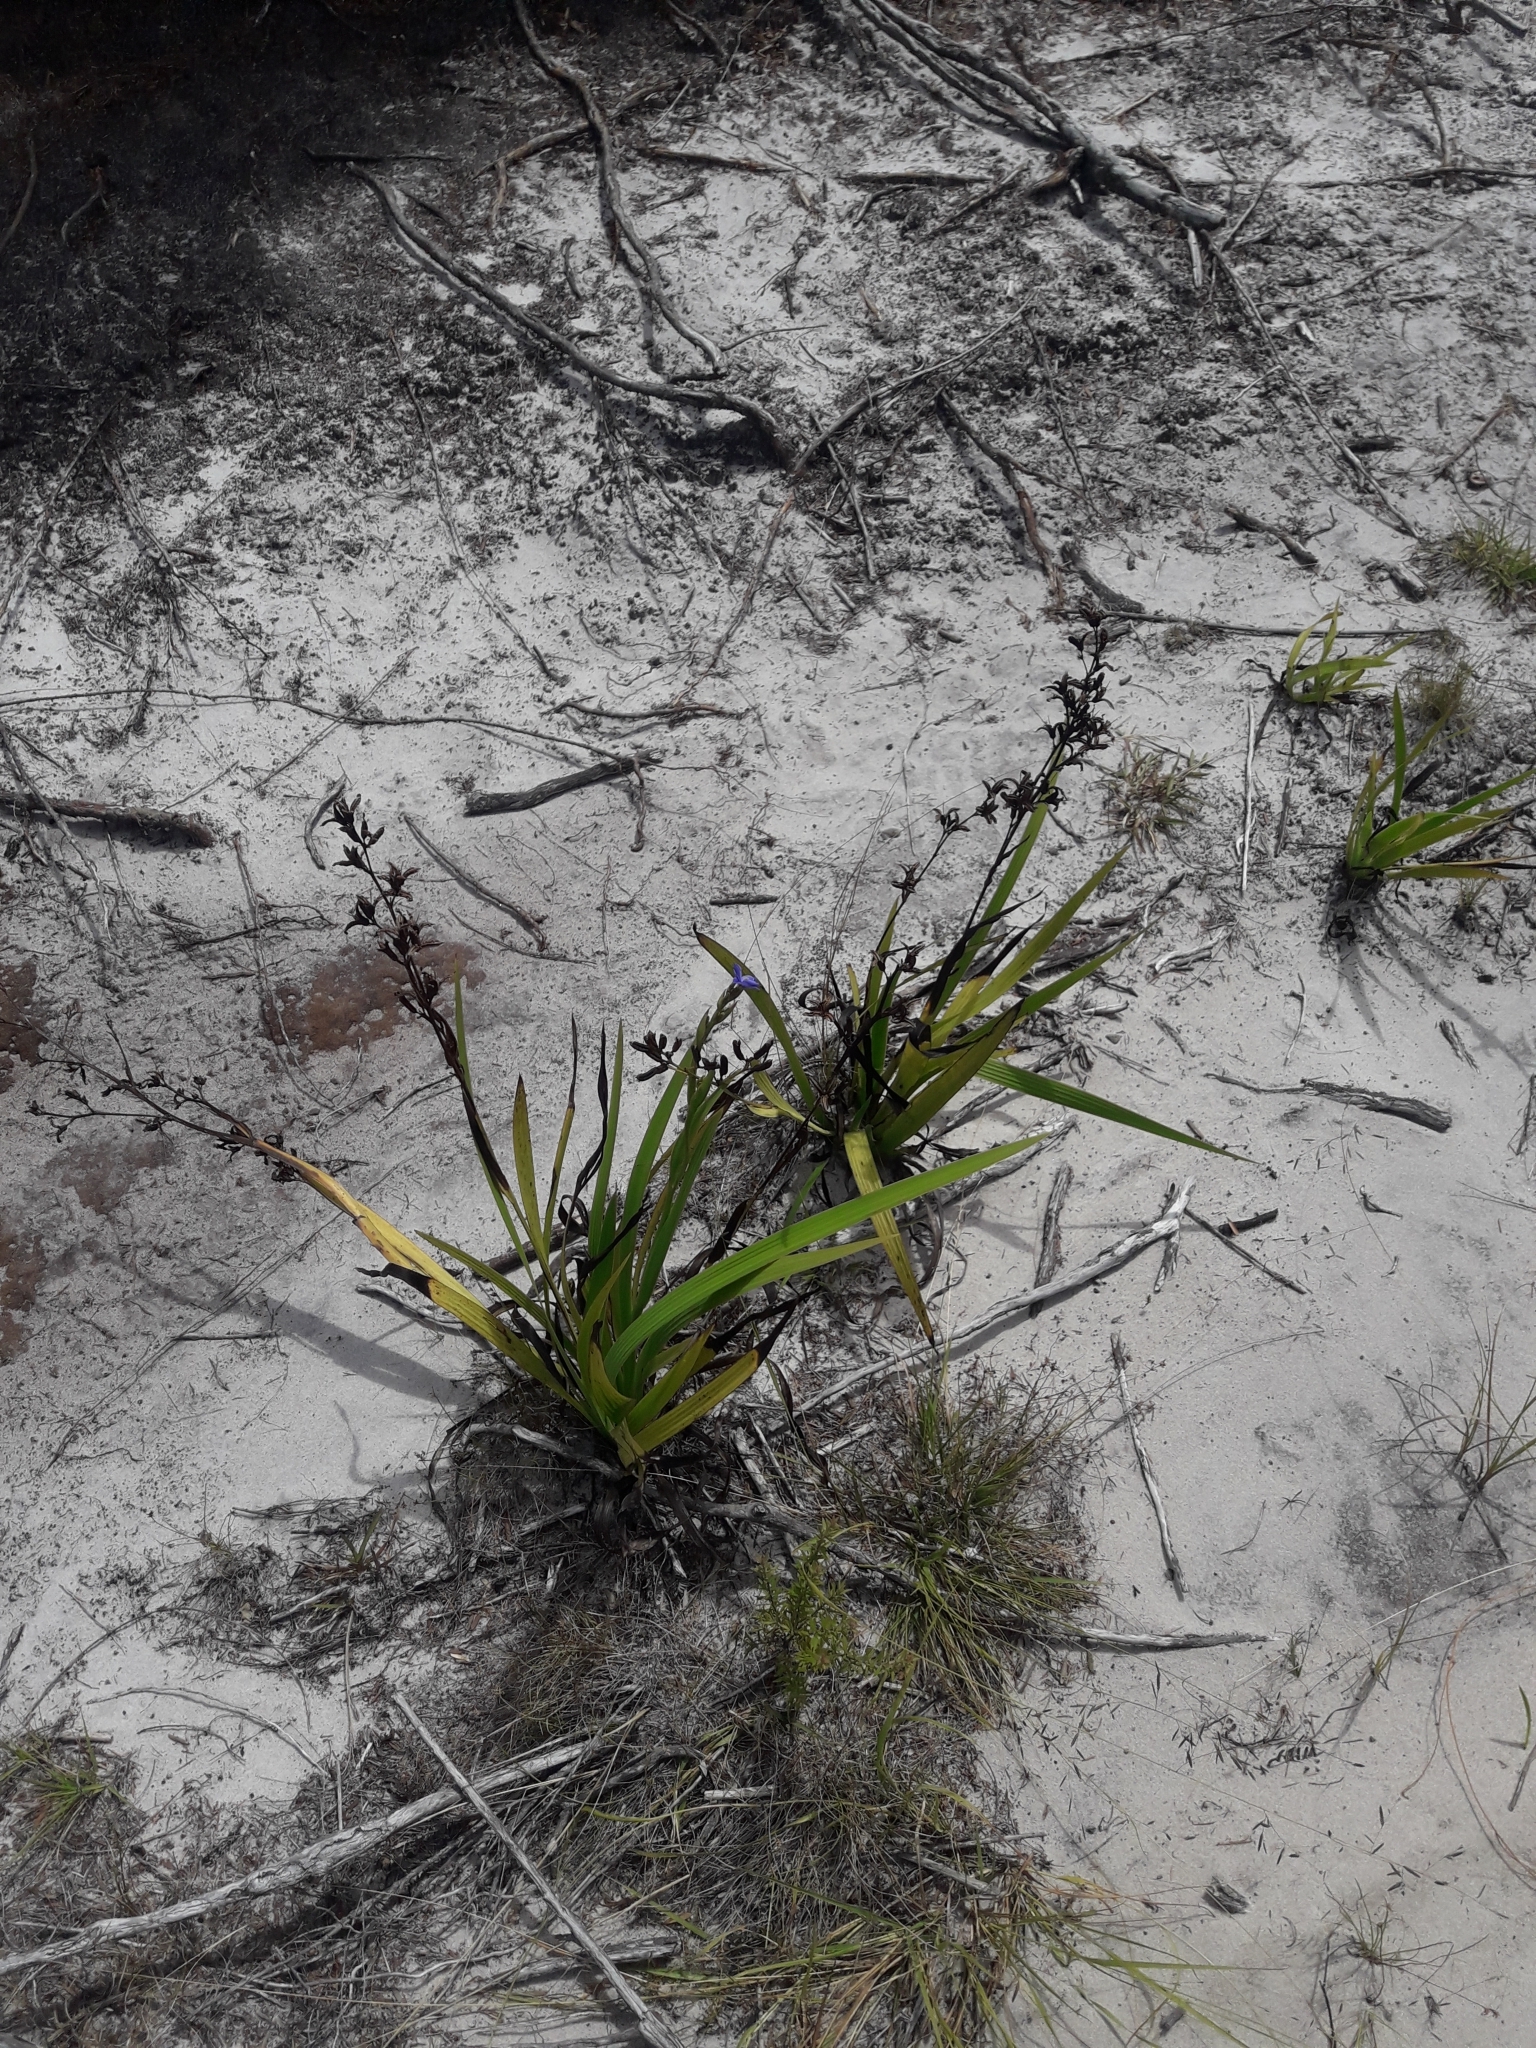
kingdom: Plantae
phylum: Tracheophyta
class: Liliopsida
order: Asparagales
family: Iridaceae
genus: Aristea
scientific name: Aristea ecklonii
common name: Blue corn-lily
